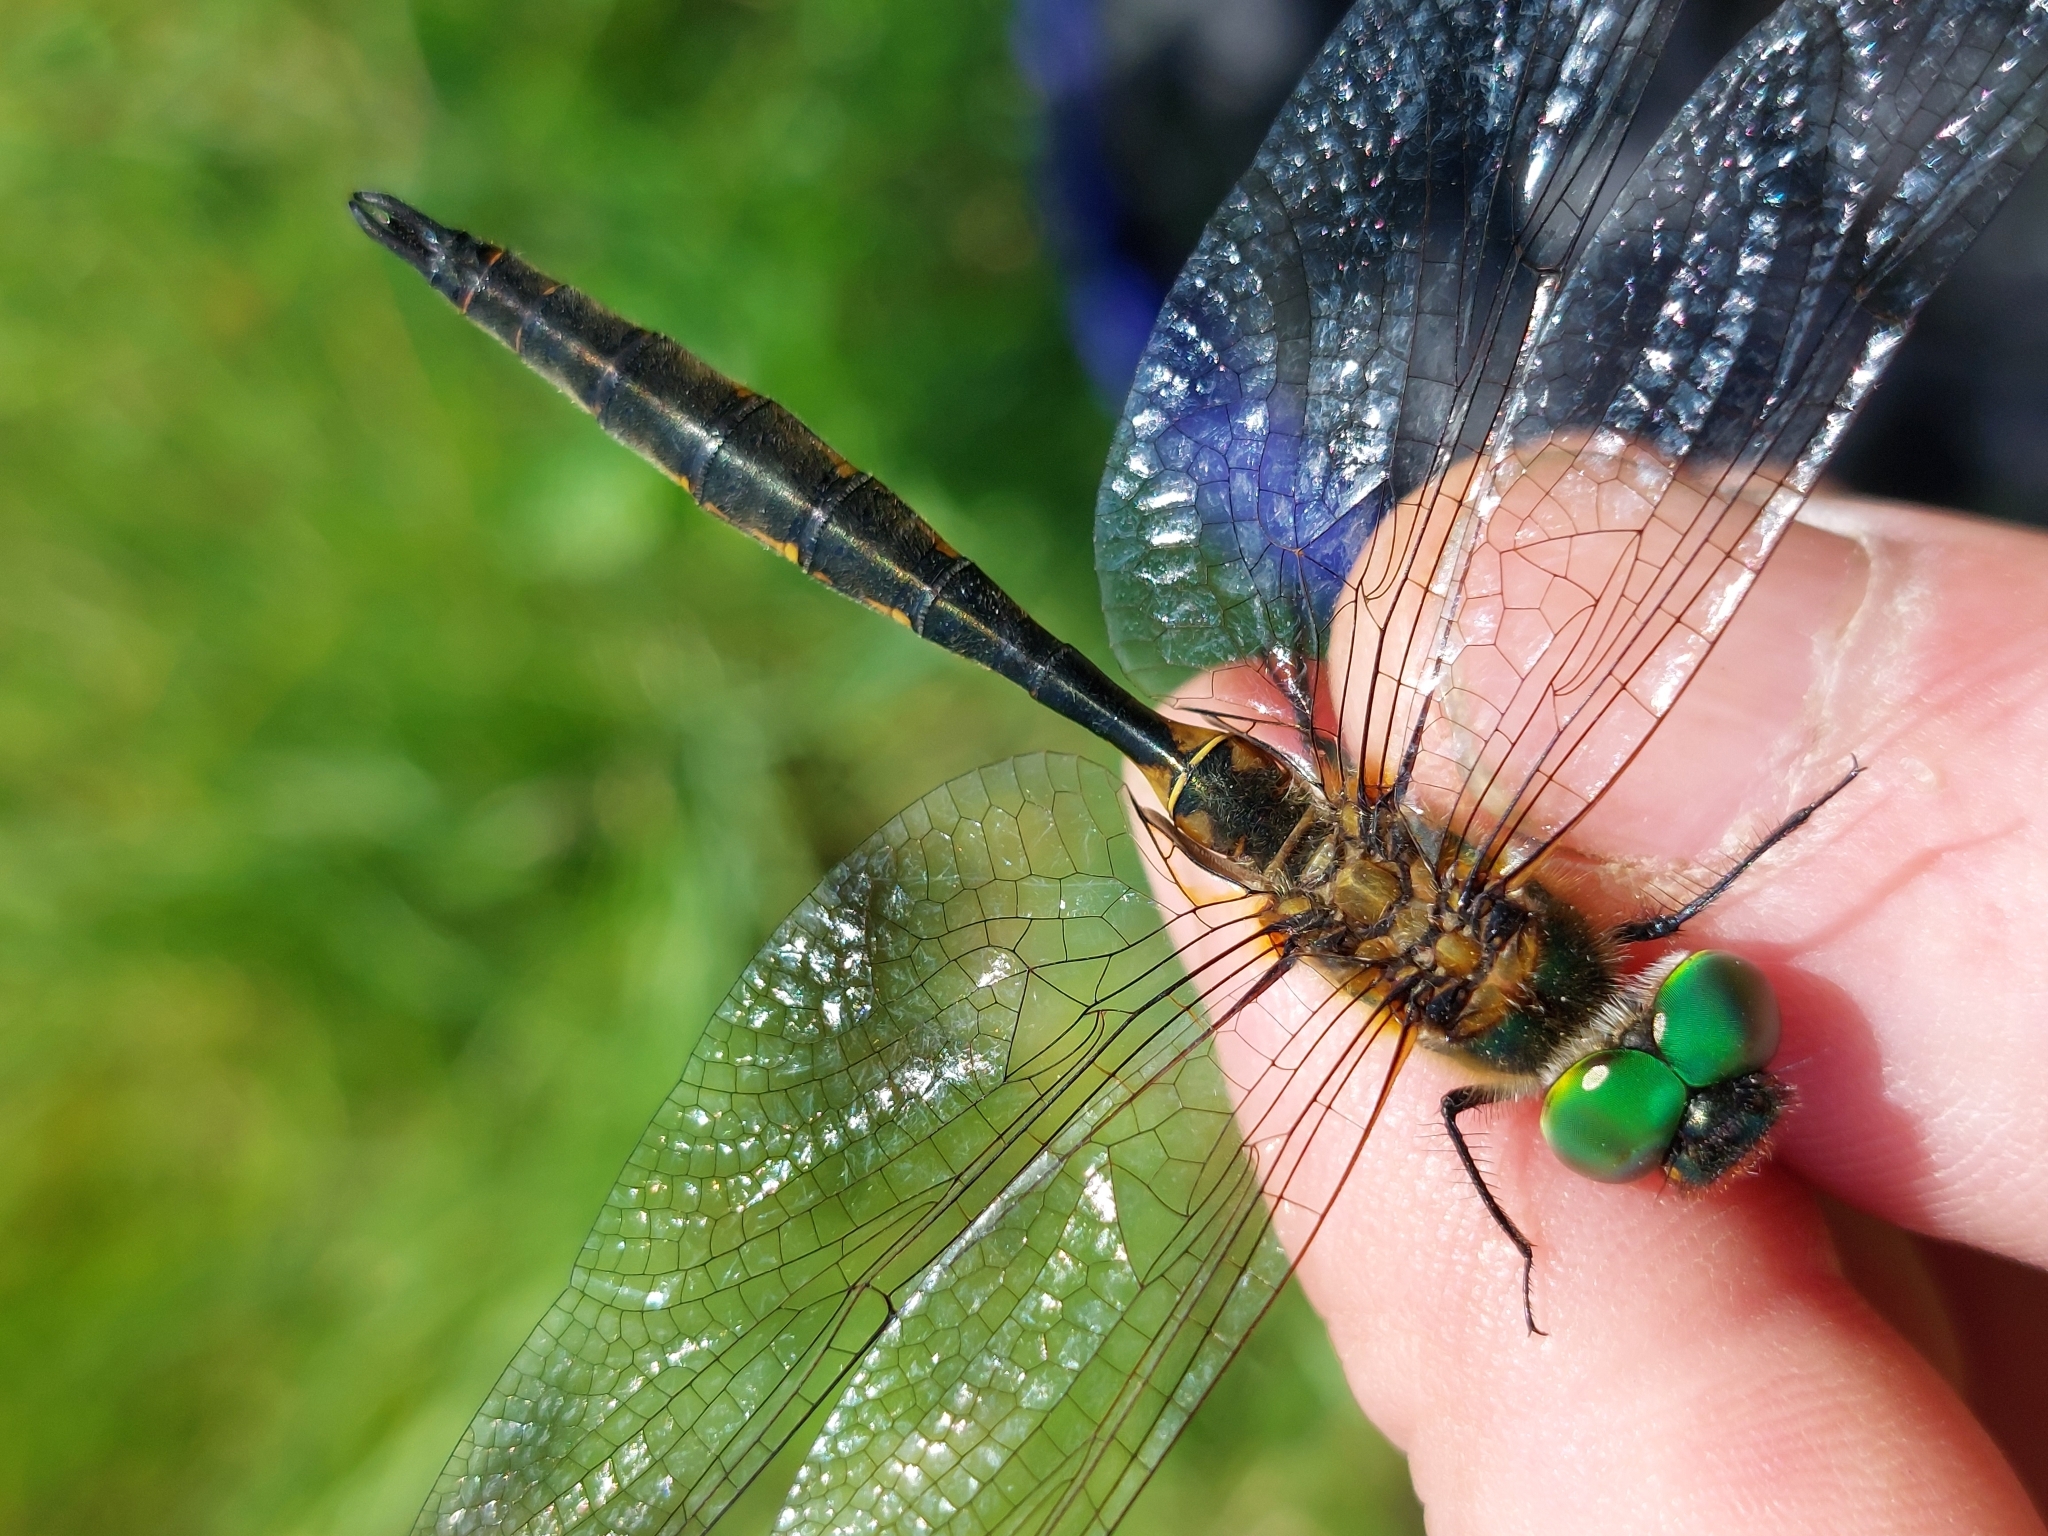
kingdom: Animalia
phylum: Arthropoda
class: Insecta
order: Odonata
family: Corduliidae
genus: Somatochlora
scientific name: Somatochlora flavomaculata
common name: Yellow-spotted emerald
